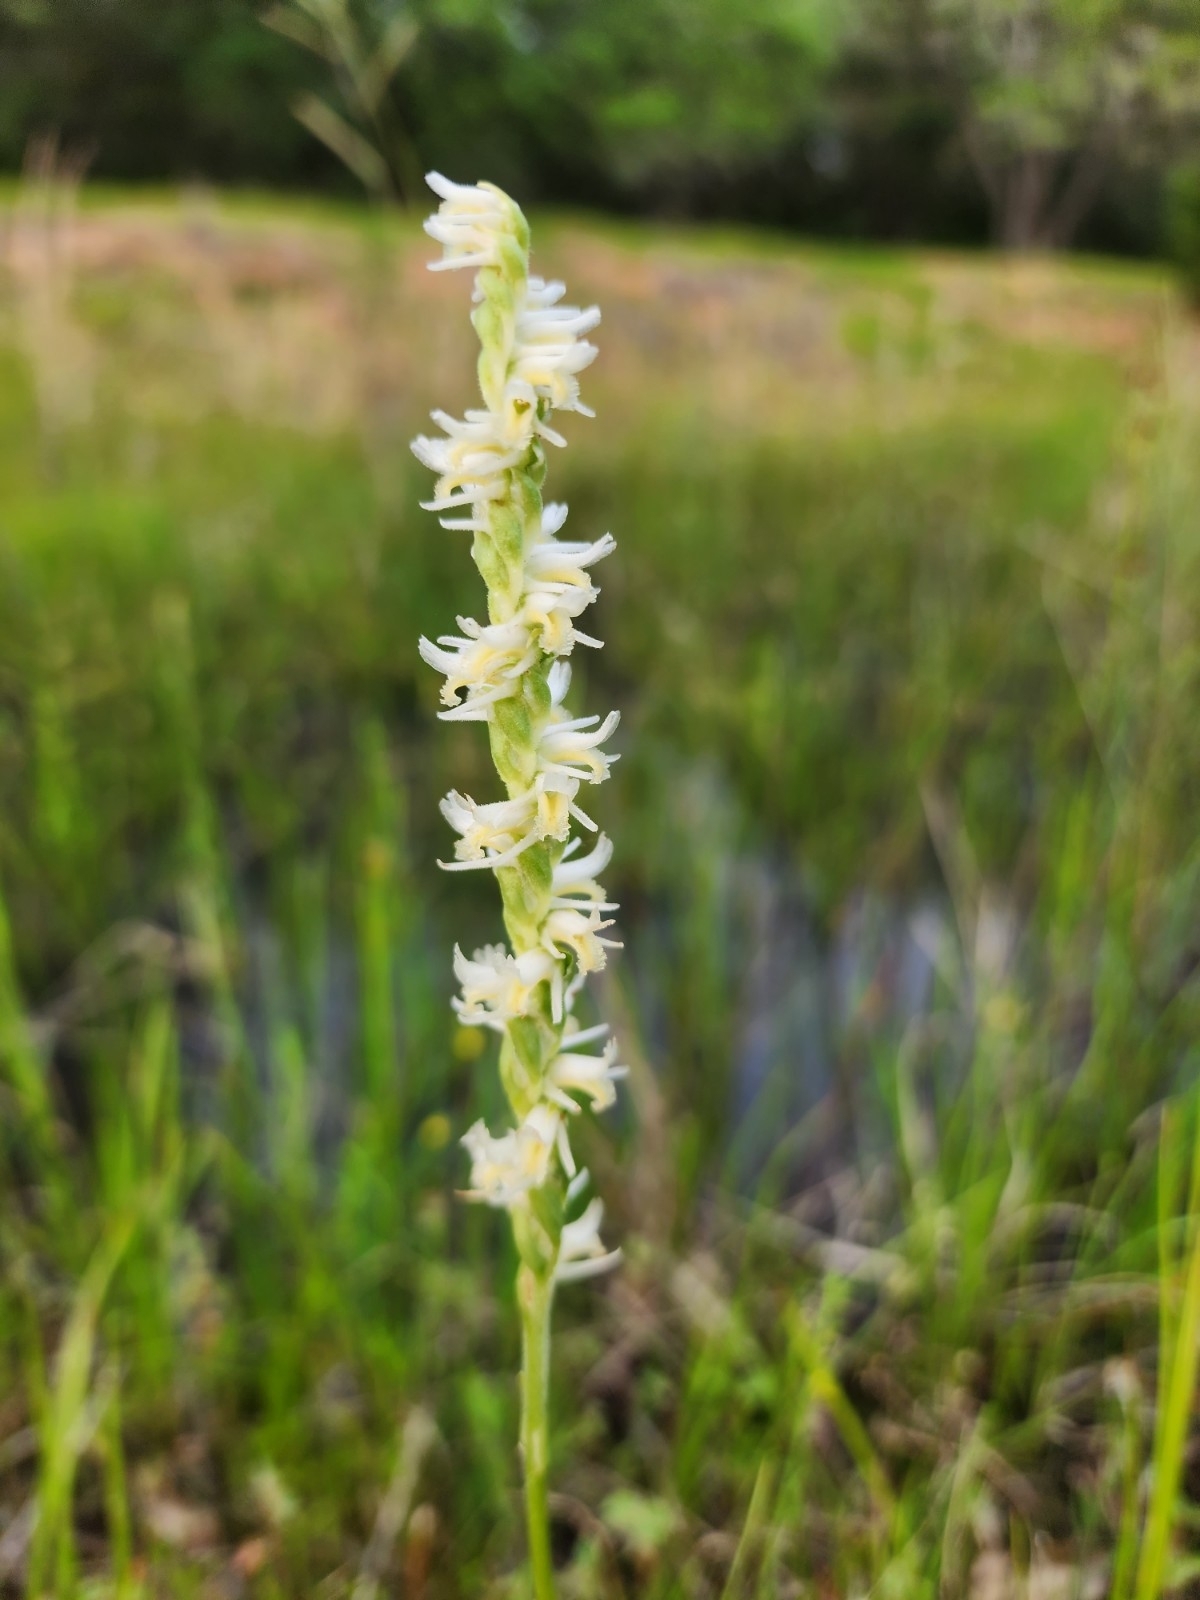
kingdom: Plantae
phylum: Tracheophyta
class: Liliopsida
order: Asparagales
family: Orchidaceae
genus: Spiranthes
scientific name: Spiranthes vernalis
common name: Spring ladies'-tresses
